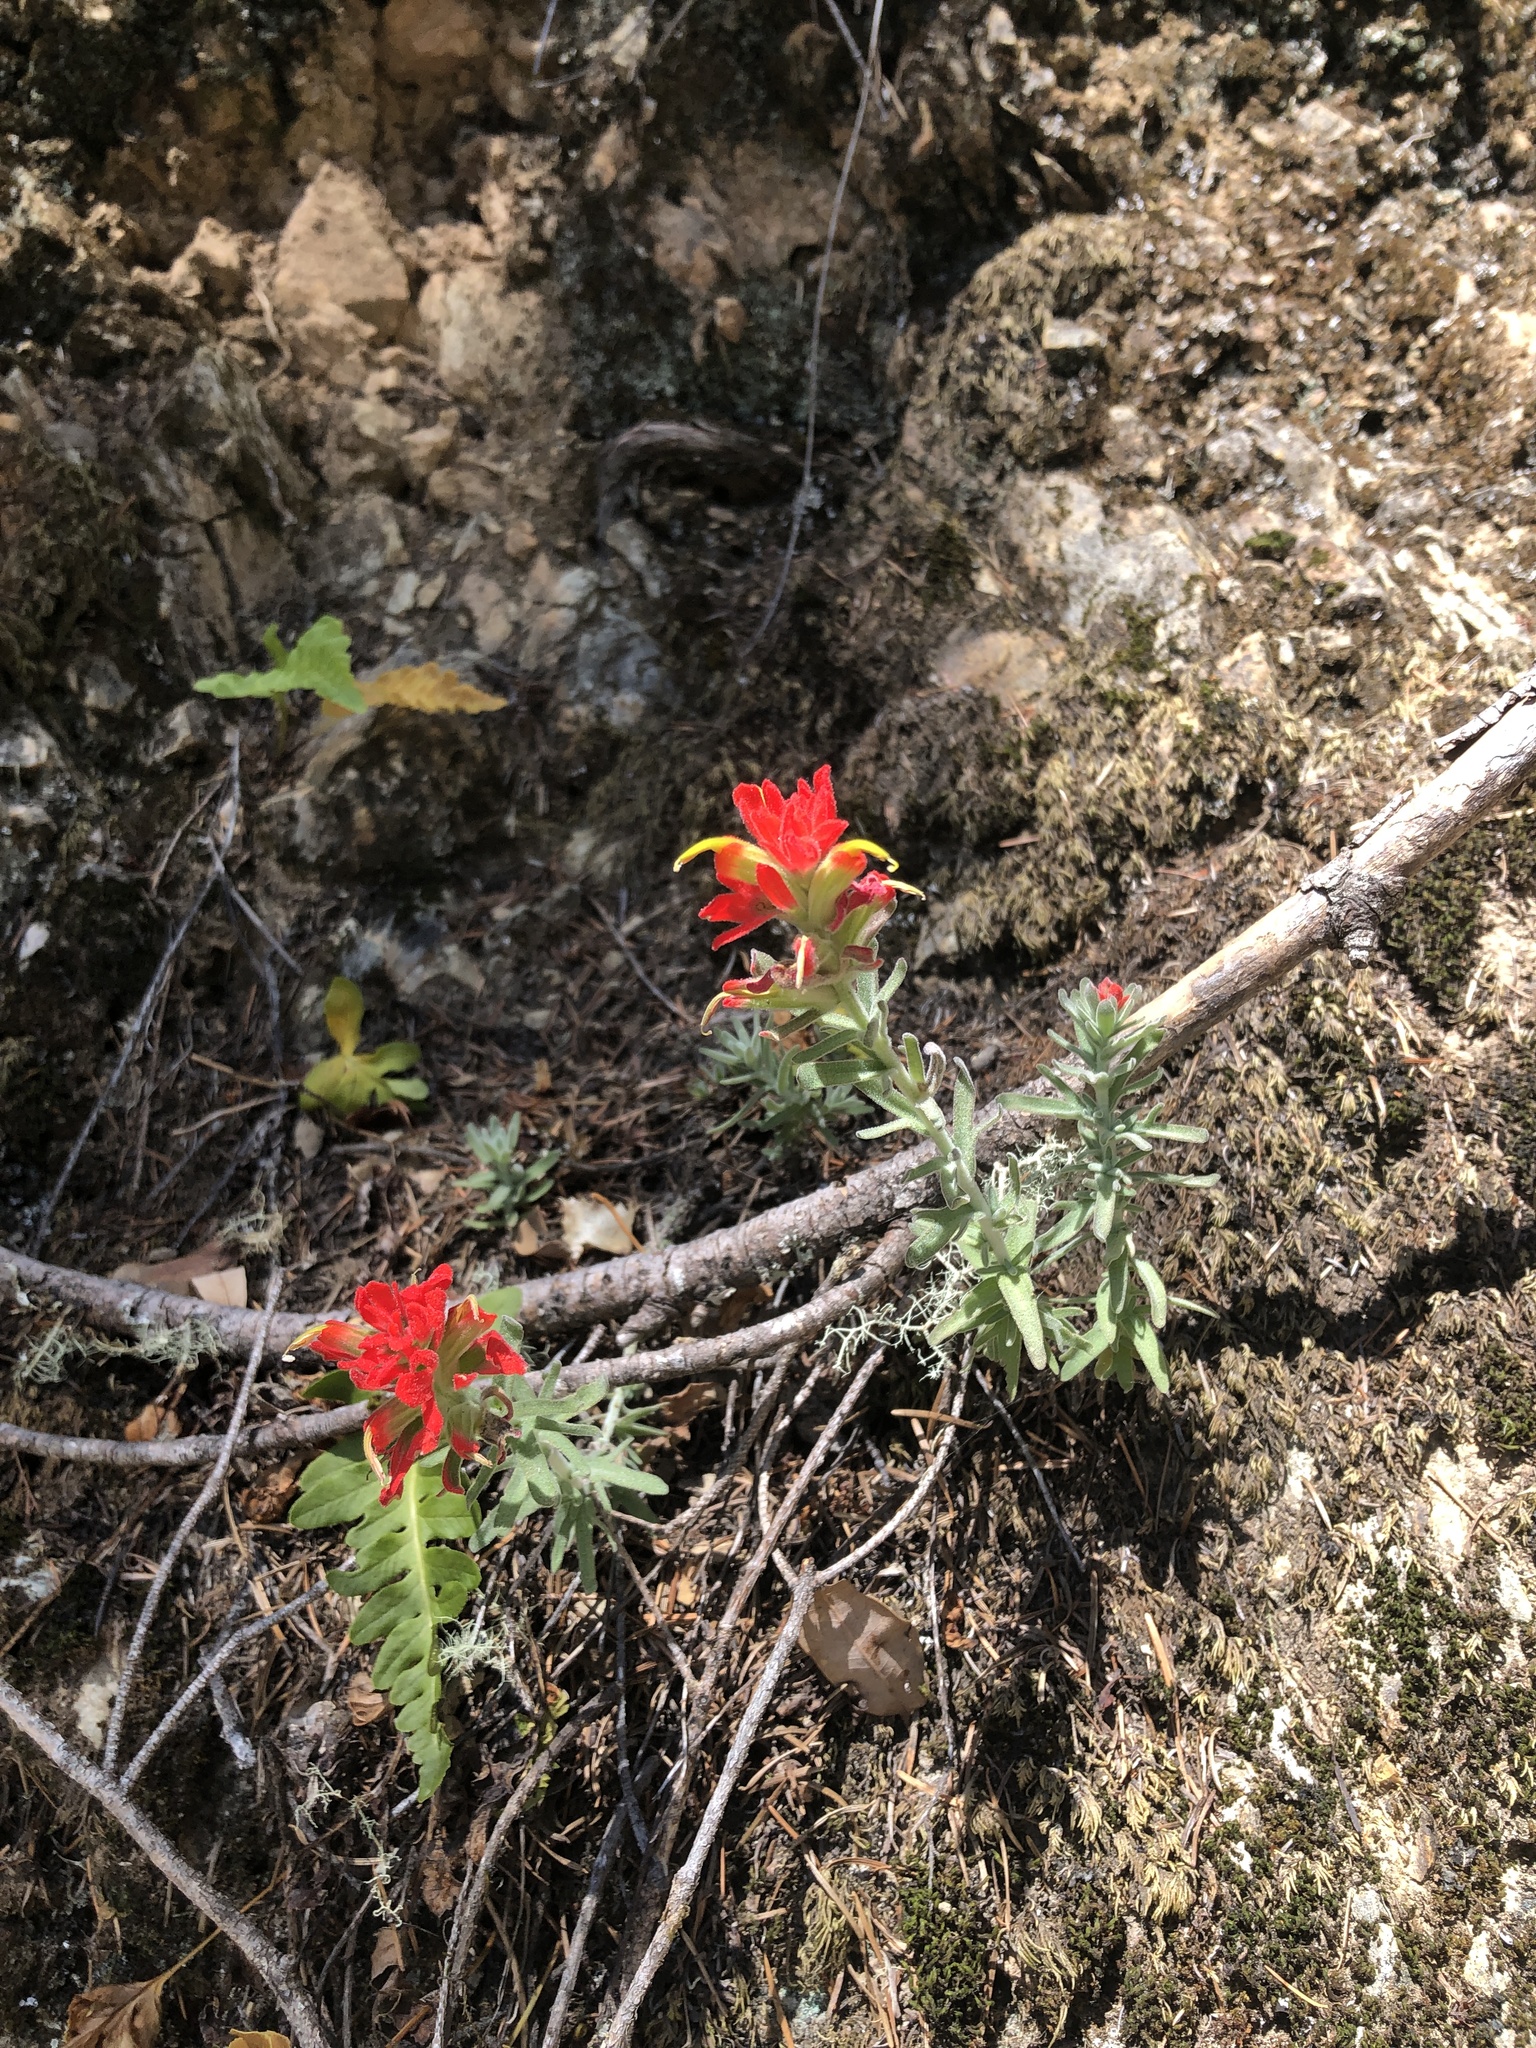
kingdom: Plantae
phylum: Tracheophyta
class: Magnoliopsida
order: Lamiales
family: Orobanchaceae
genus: Castilleja
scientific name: Castilleja foliolosa
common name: Woolly indian paintbrush
